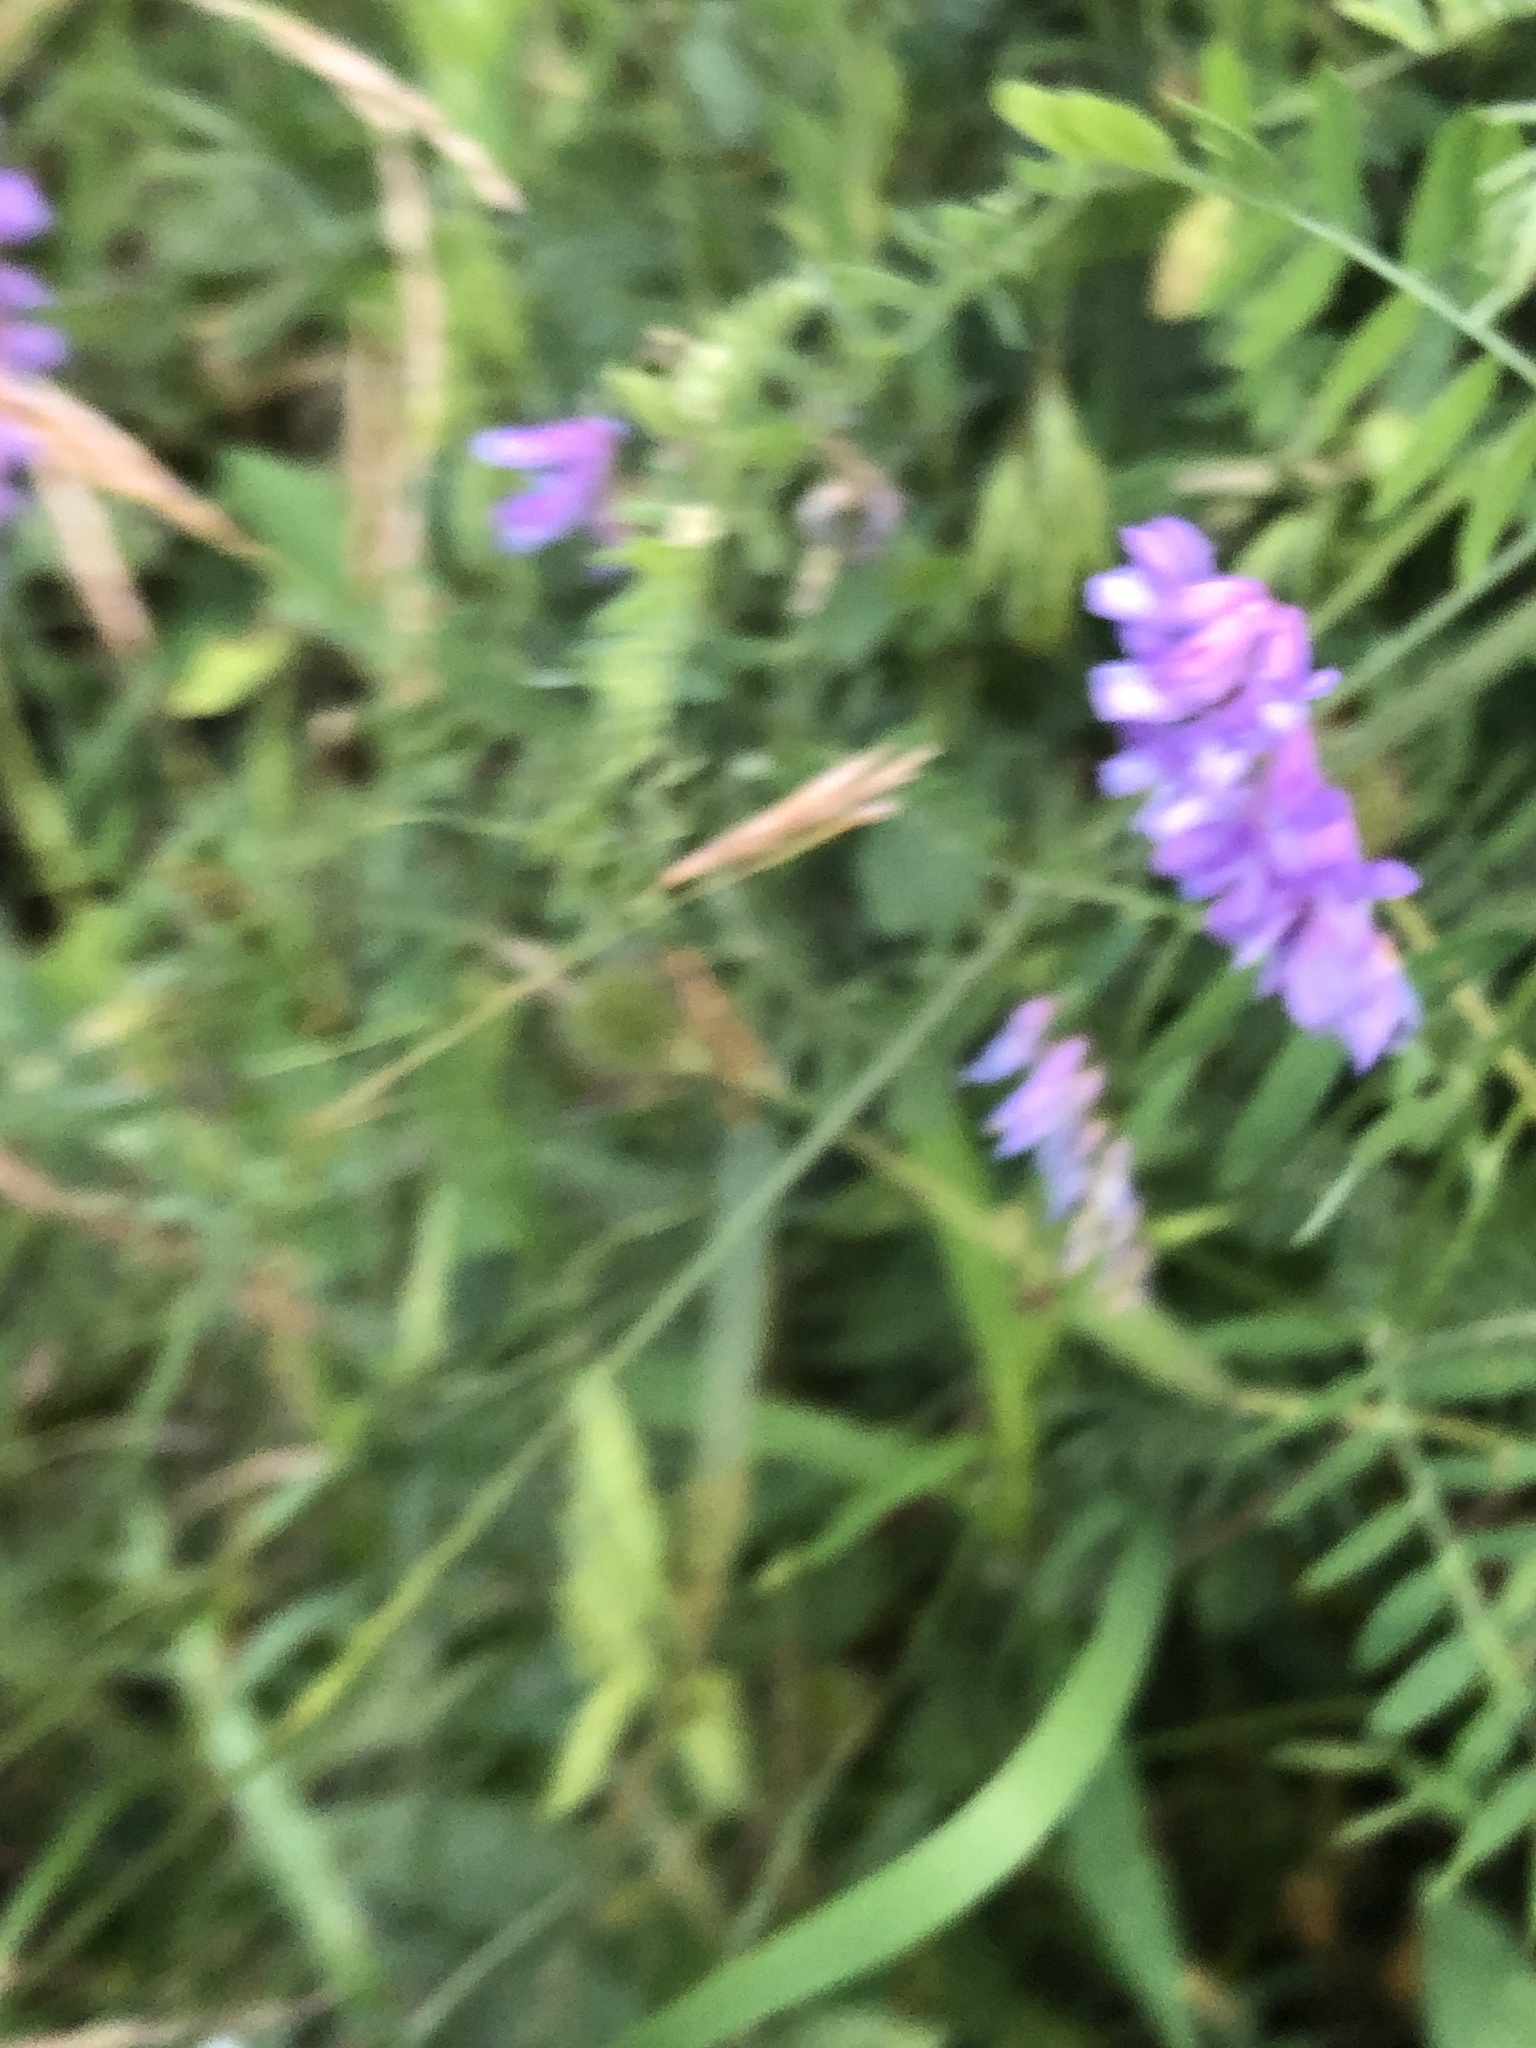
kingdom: Plantae
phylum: Tracheophyta
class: Magnoliopsida
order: Fabales
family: Fabaceae
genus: Vicia
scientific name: Vicia cracca
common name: Bird vetch
